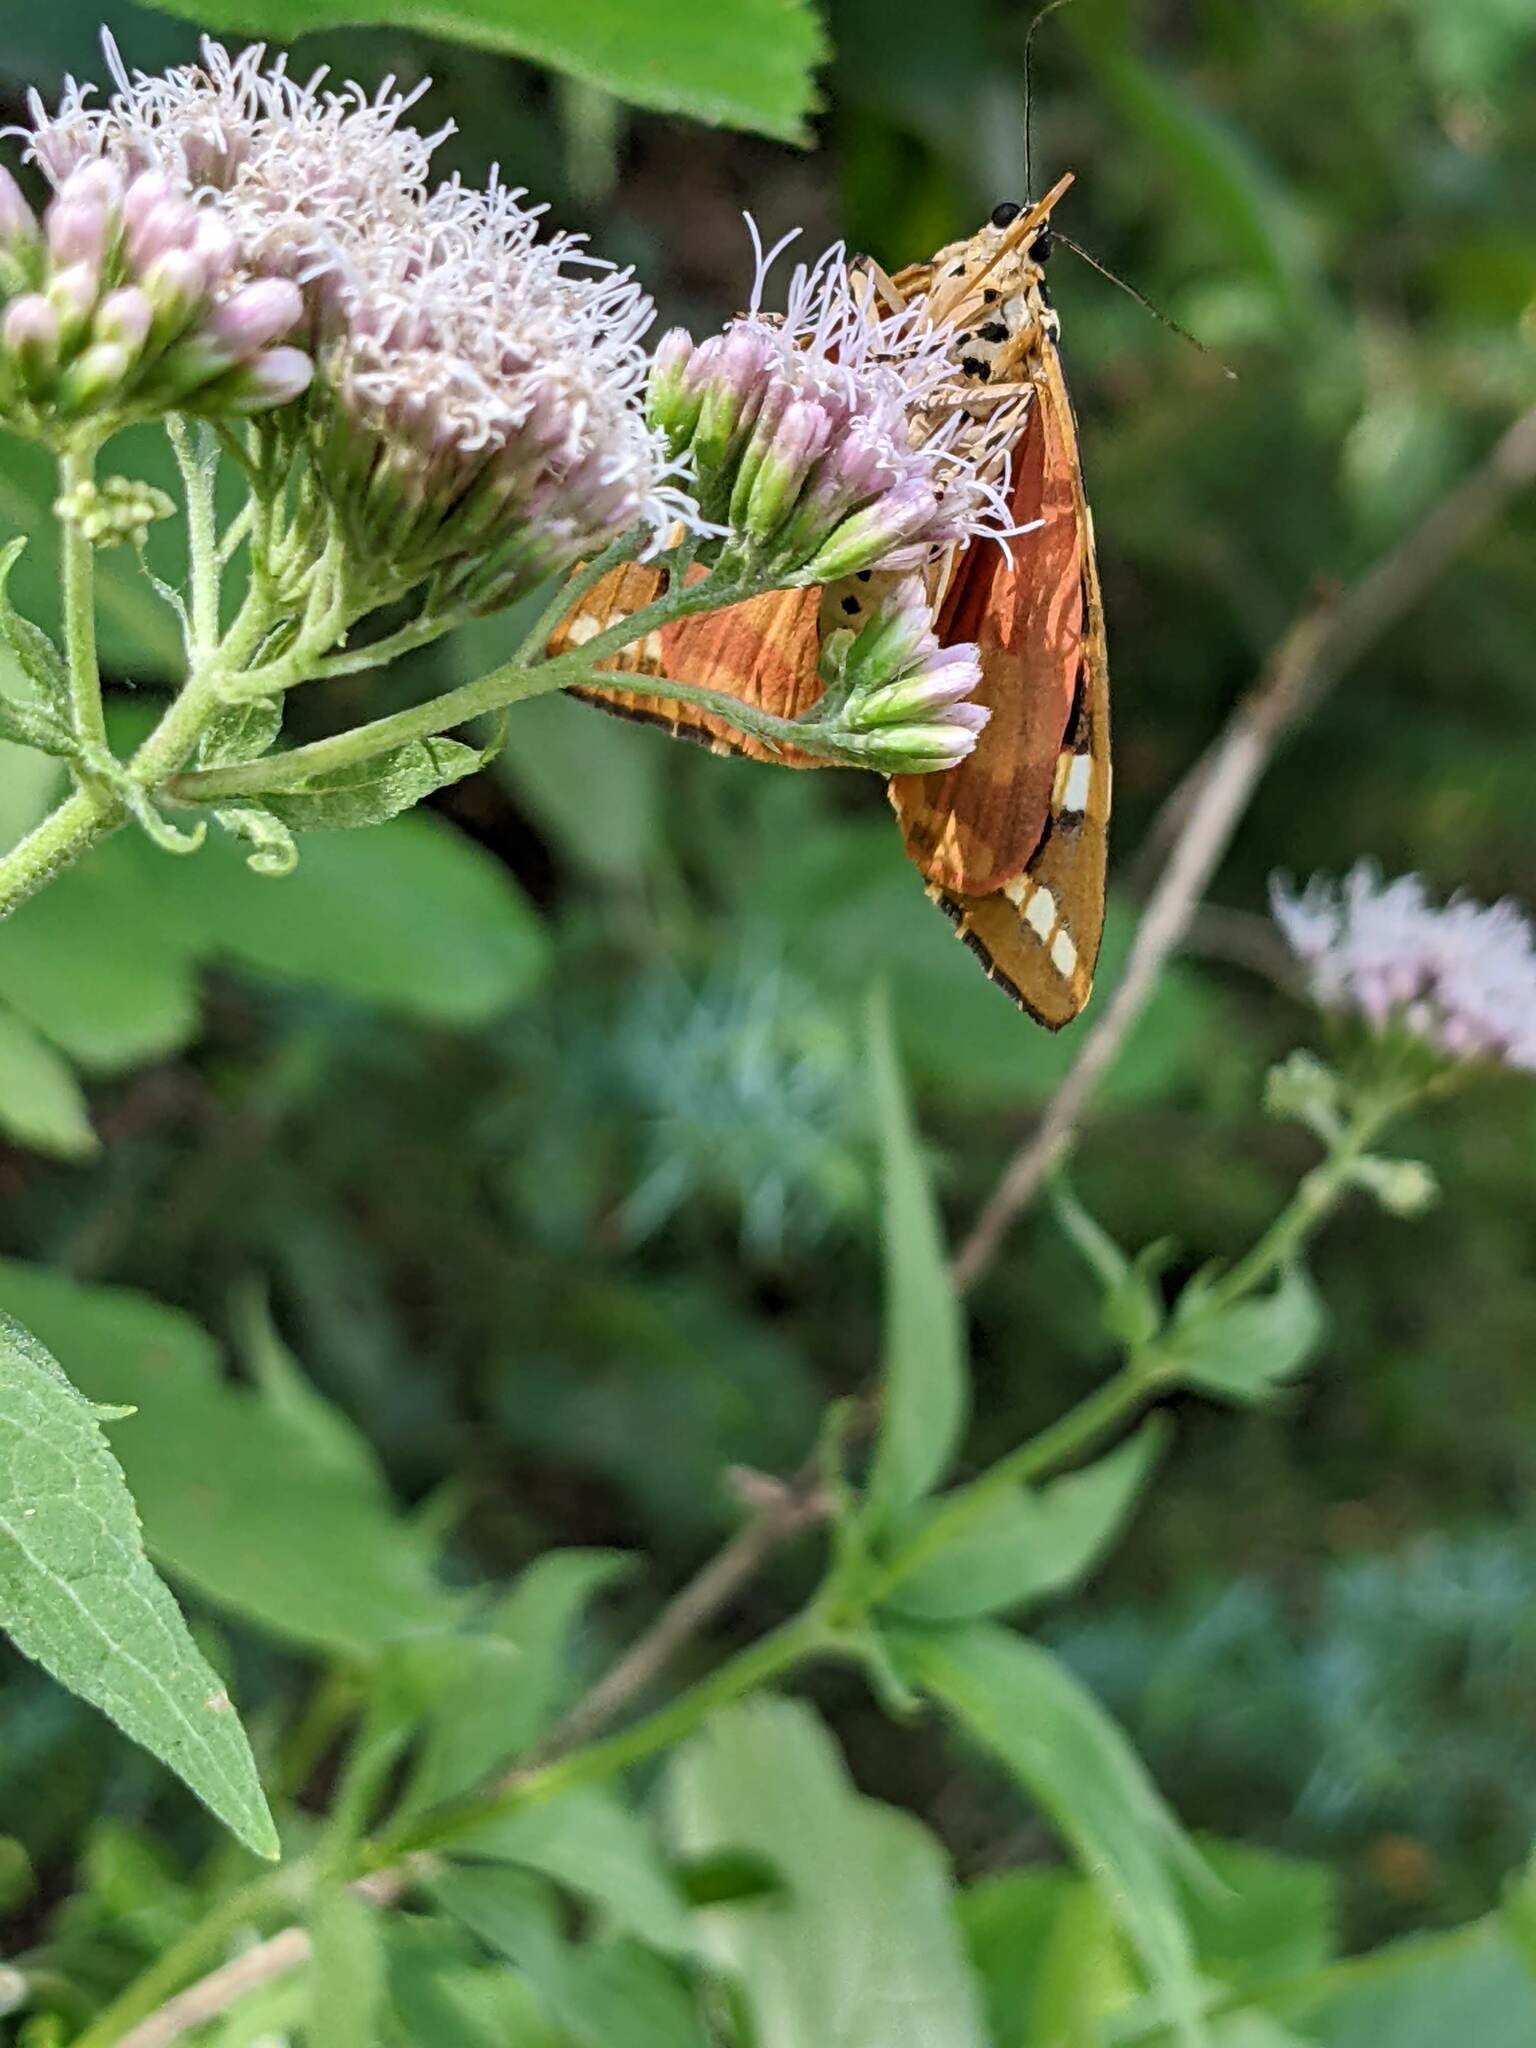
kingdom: Animalia
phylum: Arthropoda
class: Insecta
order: Lepidoptera
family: Erebidae
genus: Euplagia
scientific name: Euplagia quadripunctaria
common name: Jersey tiger
